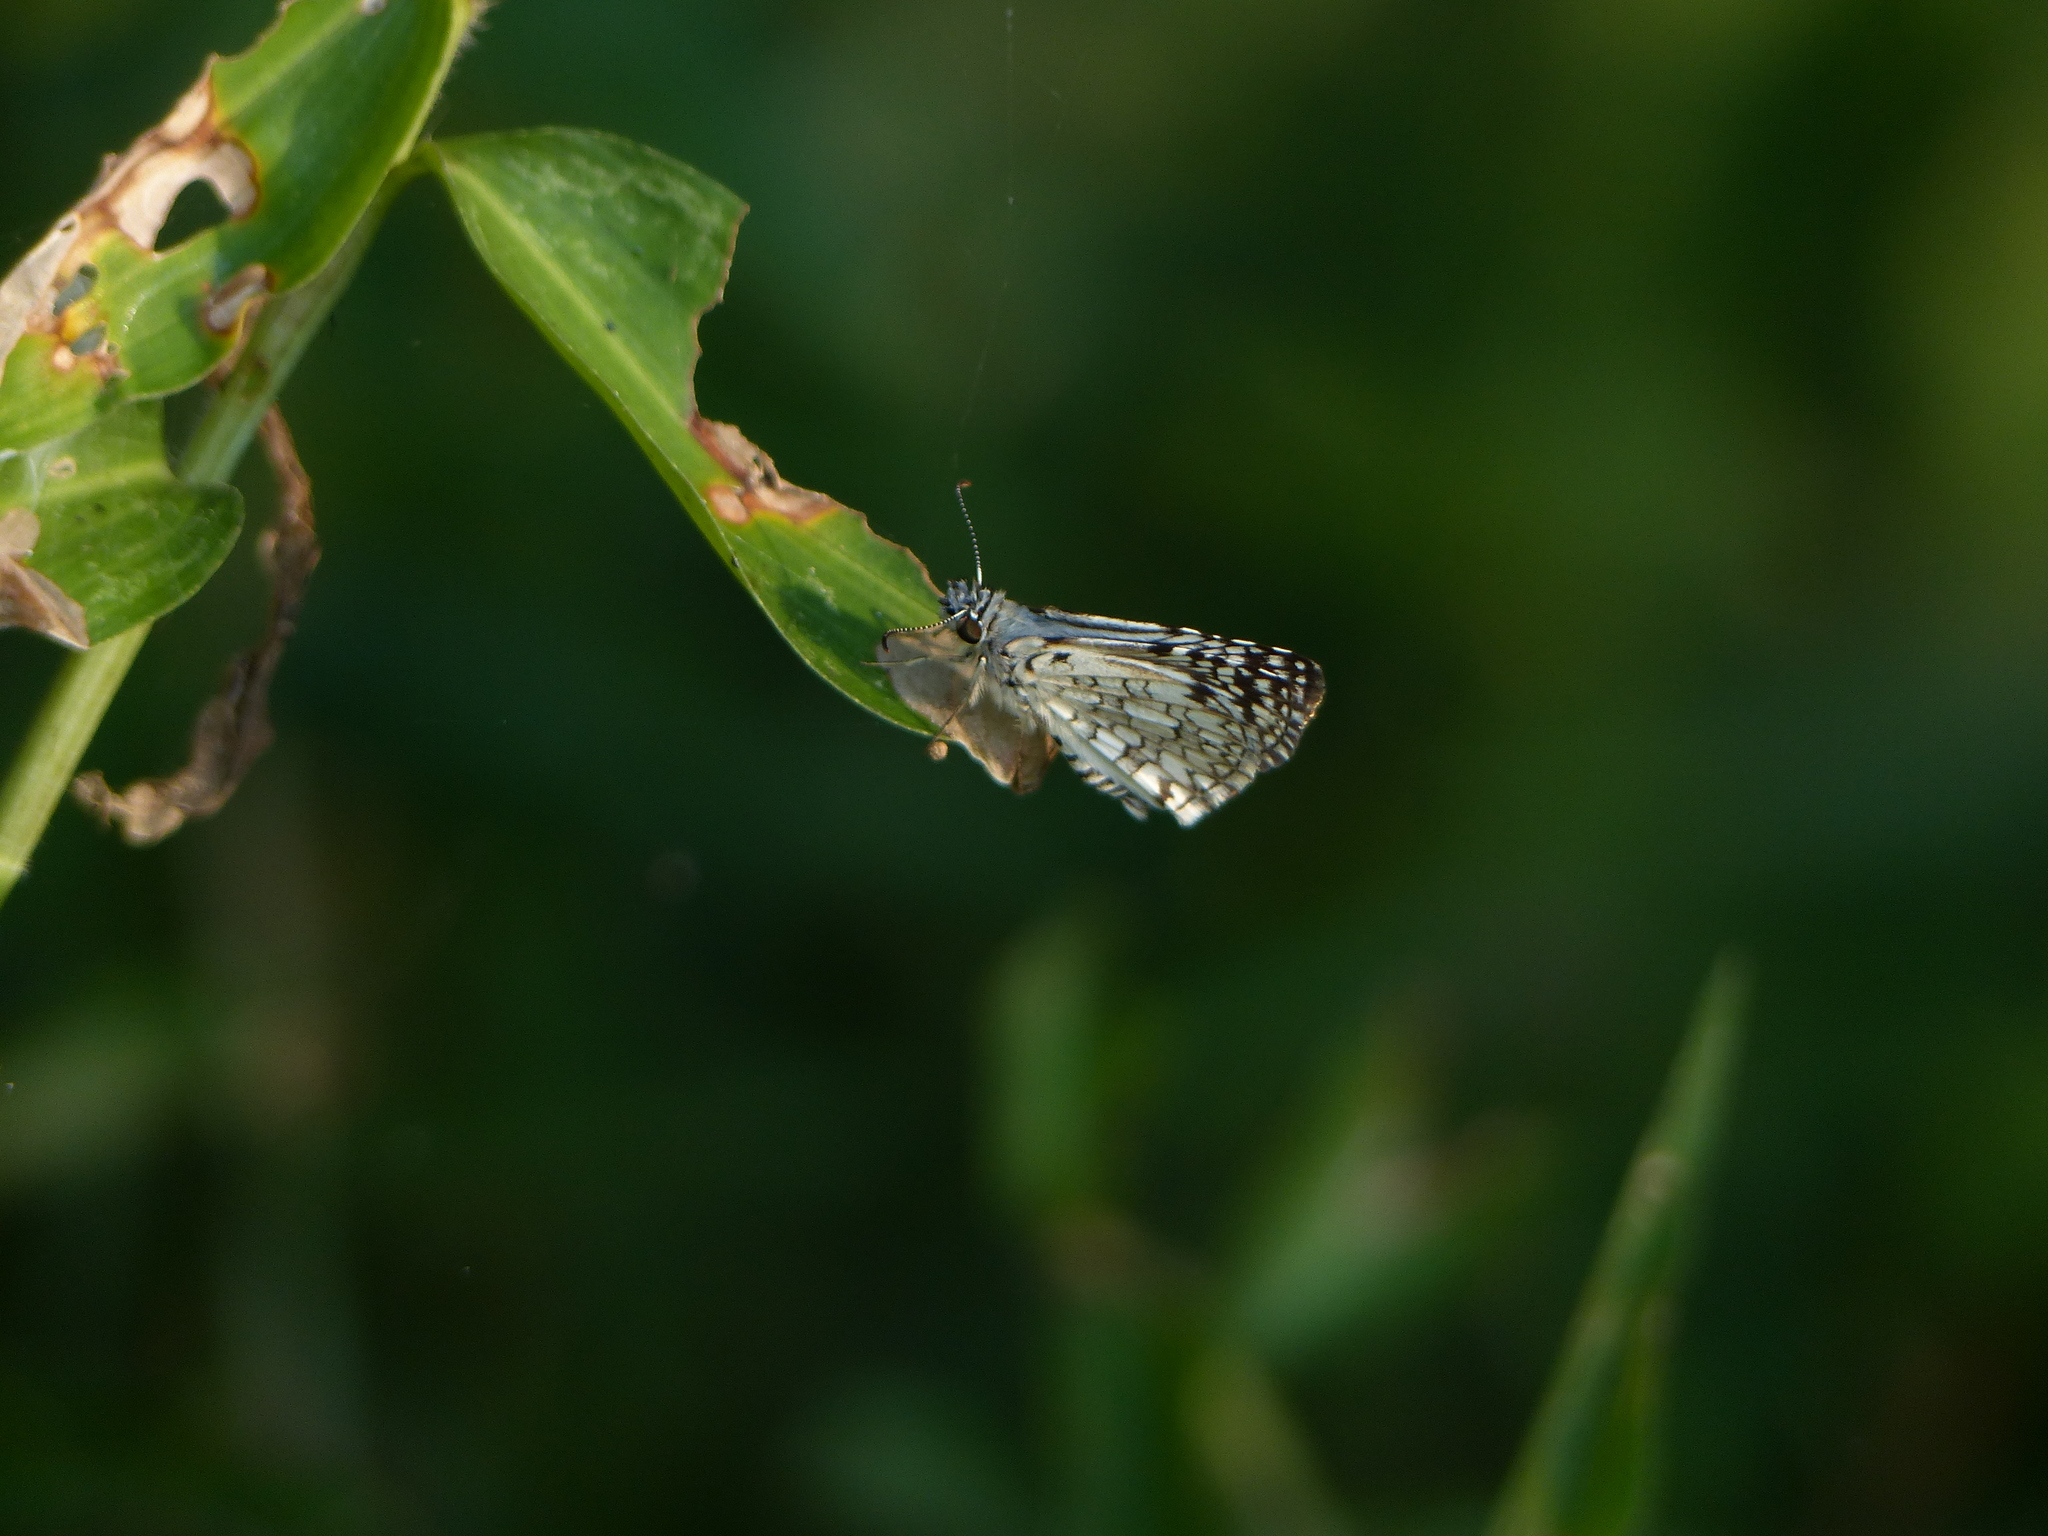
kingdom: Animalia
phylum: Arthropoda
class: Insecta
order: Lepidoptera
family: Hesperiidae
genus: Pyrgus
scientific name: Pyrgus oileus
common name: Tropical checkered-skipper
